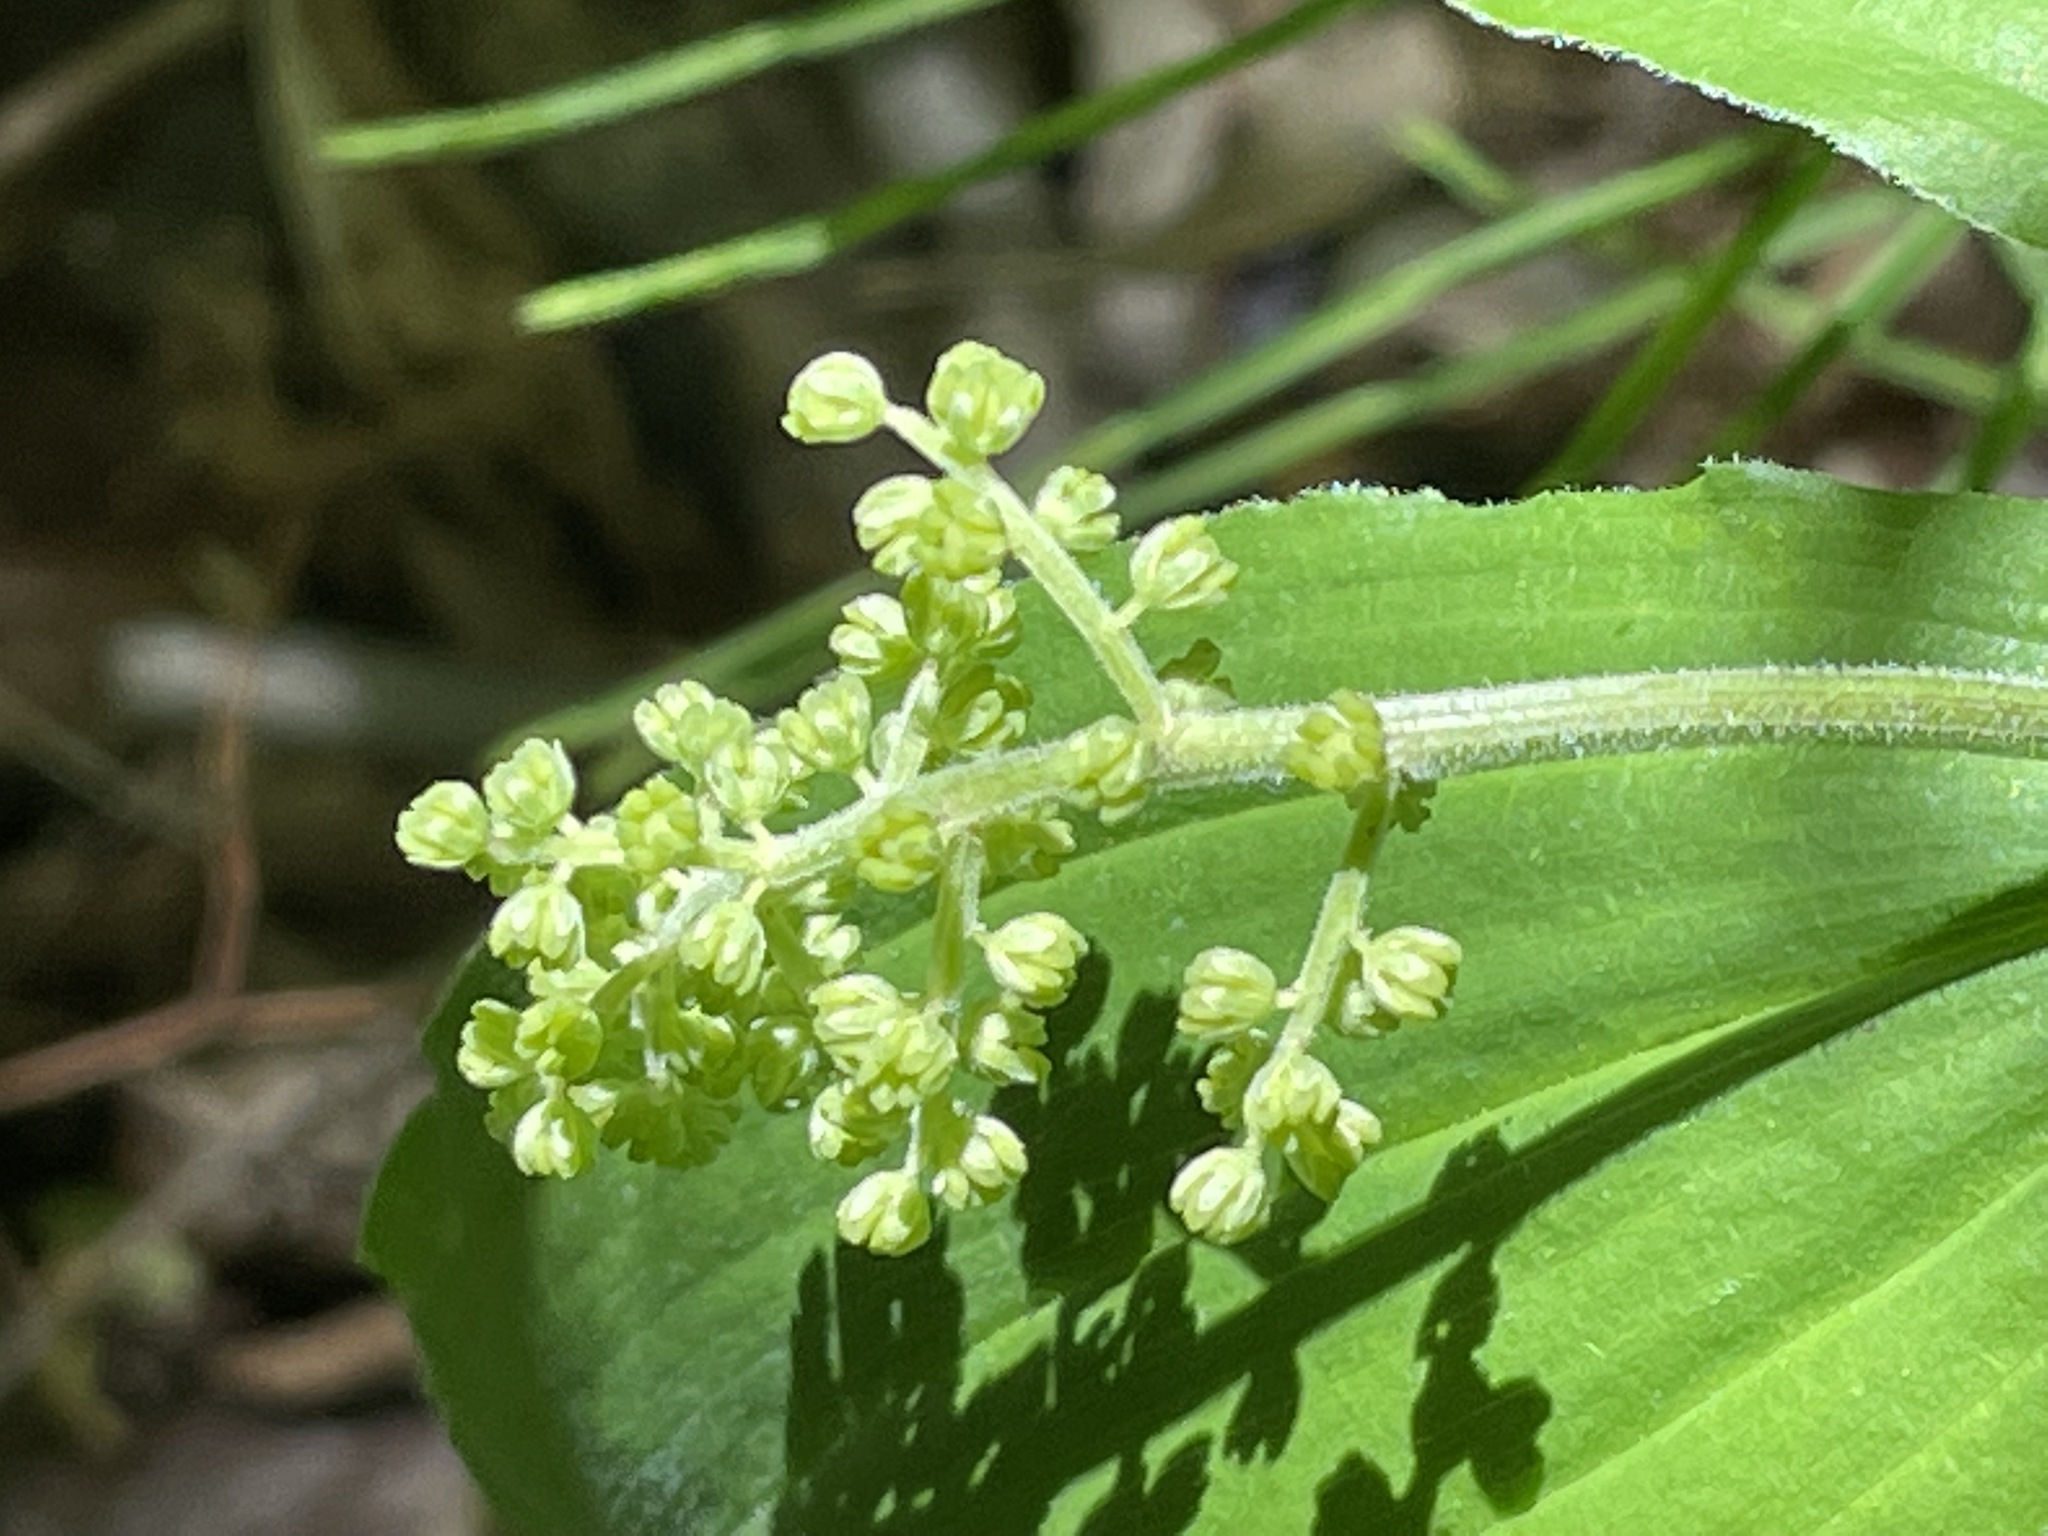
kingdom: Plantae
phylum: Tracheophyta
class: Liliopsida
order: Asparagales
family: Asparagaceae
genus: Maianthemum
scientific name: Maianthemum racemosum
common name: False spikenard
